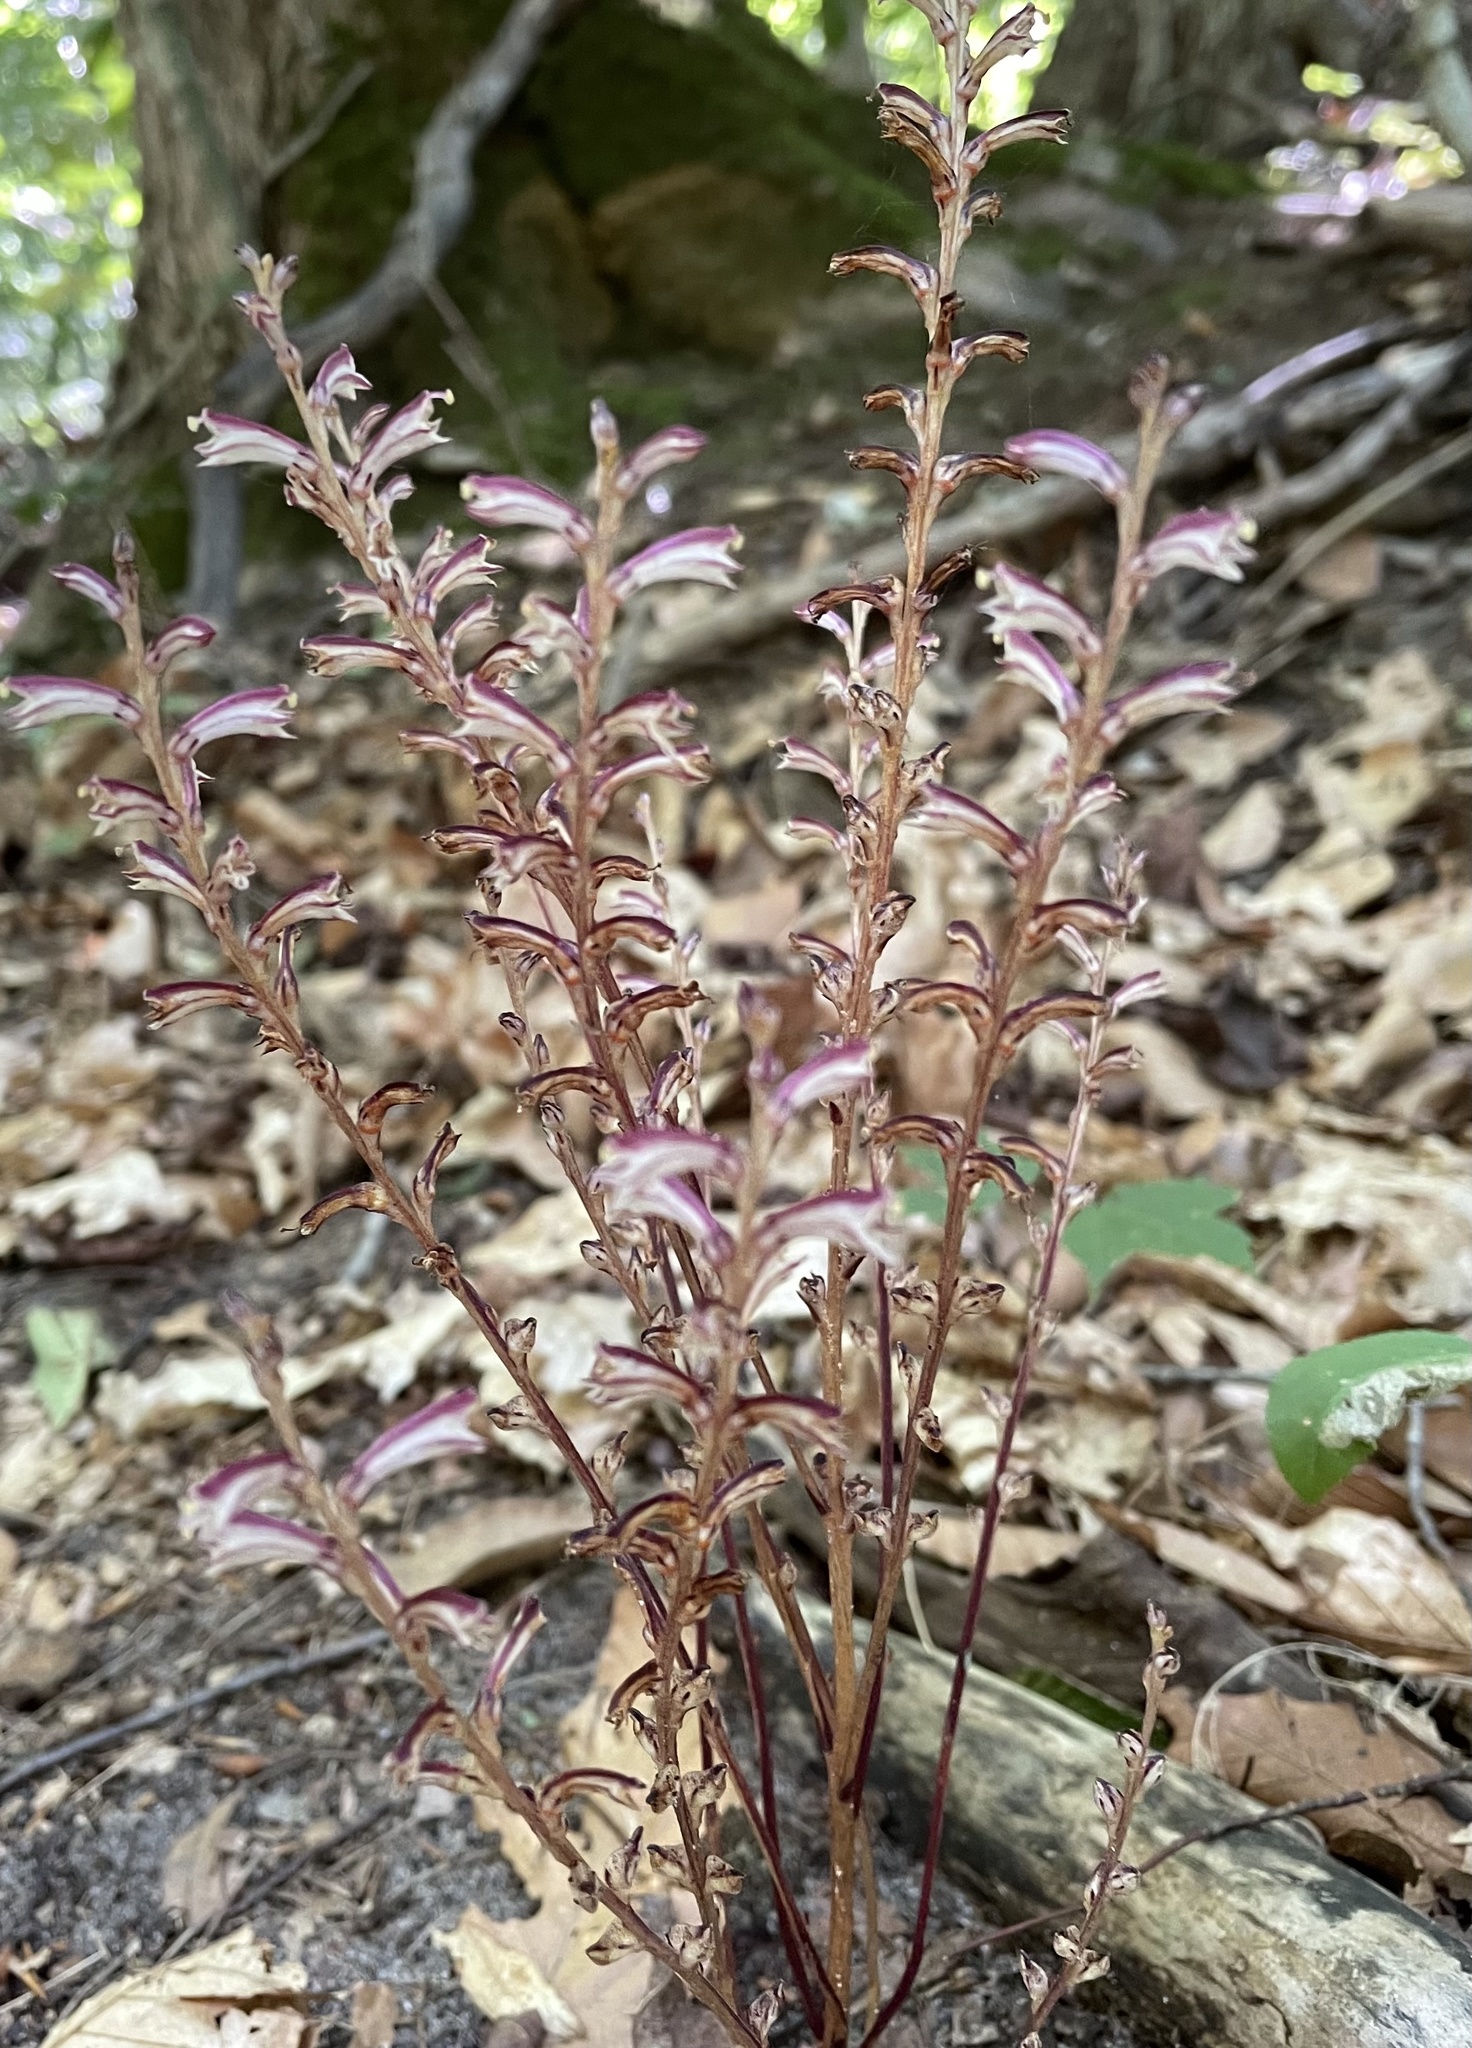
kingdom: Plantae
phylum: Tracheophyta
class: Magnoliopsida
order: Lamiales
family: Orobanchaceae
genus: Epifagus
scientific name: Epifagus virginiana
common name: Beechdrops
